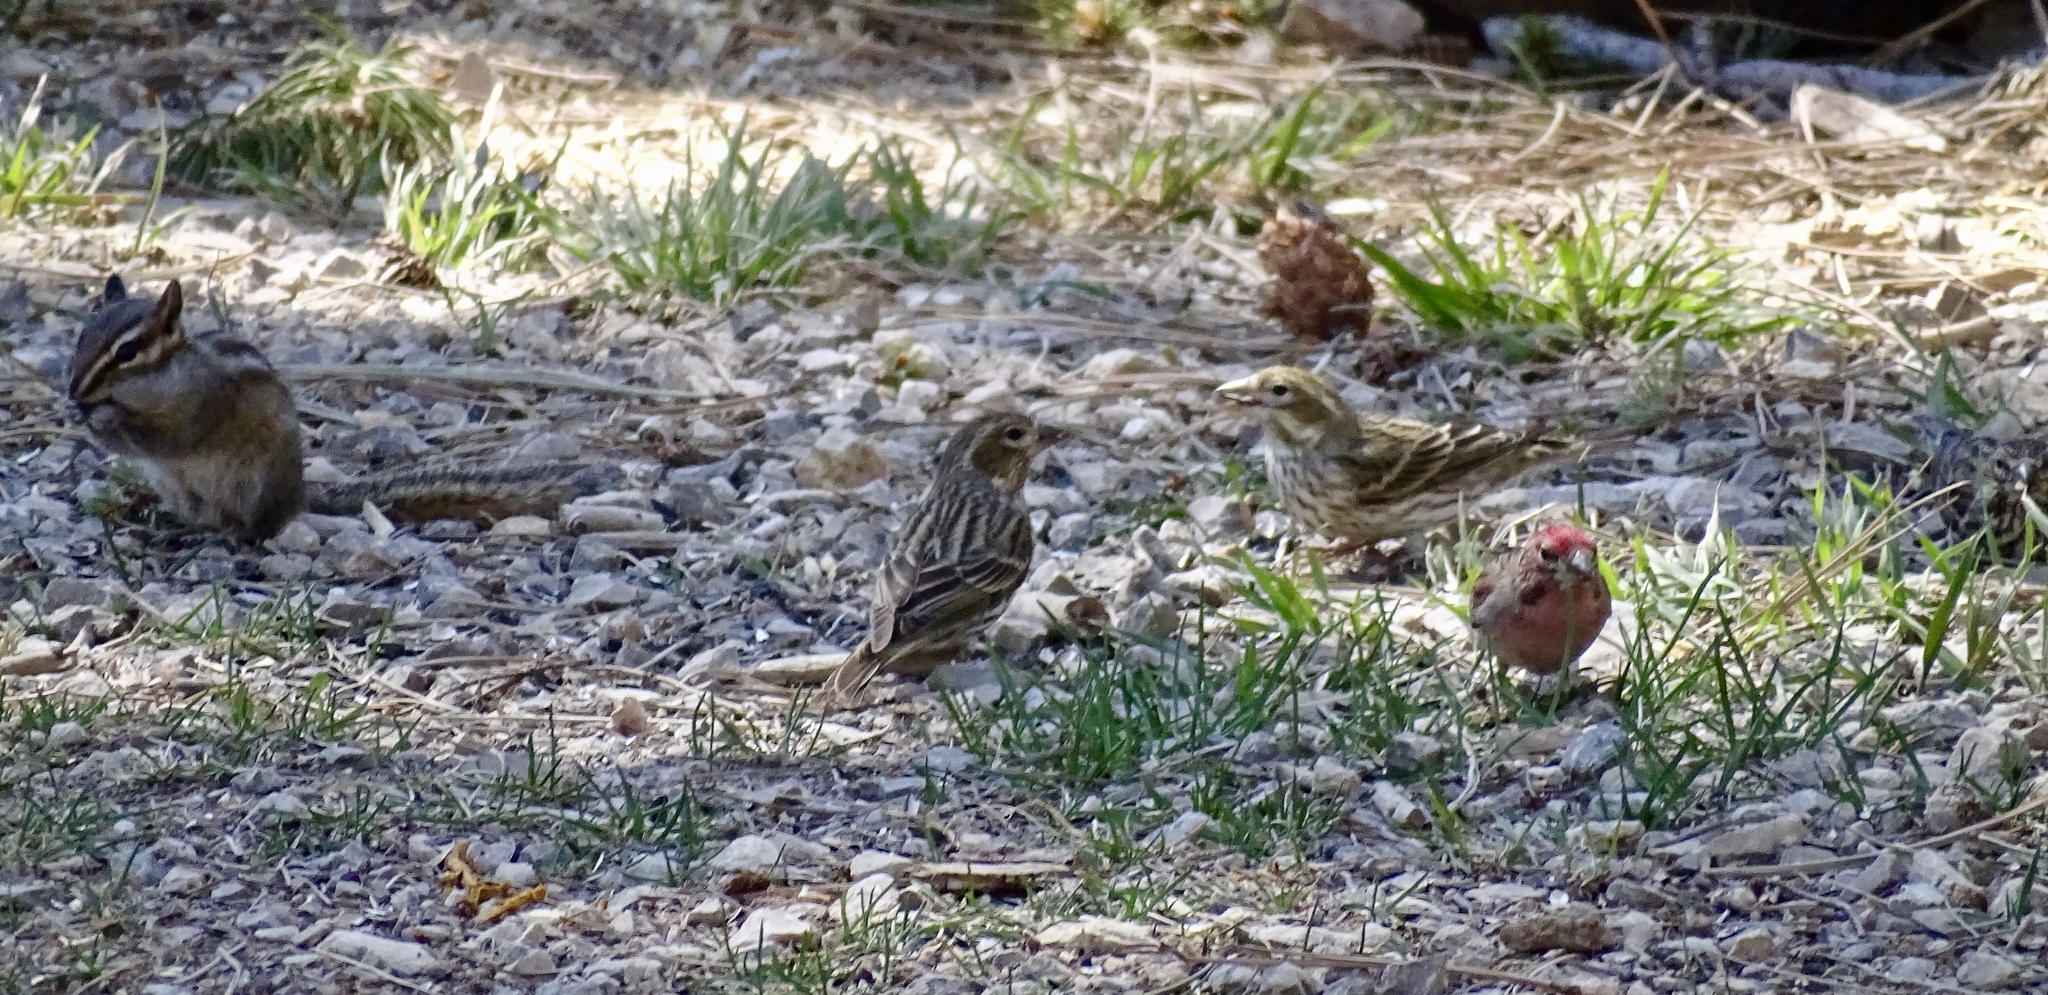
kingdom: Animalia
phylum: Chordata
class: Aves
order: Passeriformes
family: Fringillidae
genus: Haemorhous
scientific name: Haemorhous cassinii
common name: Cassin's finch
